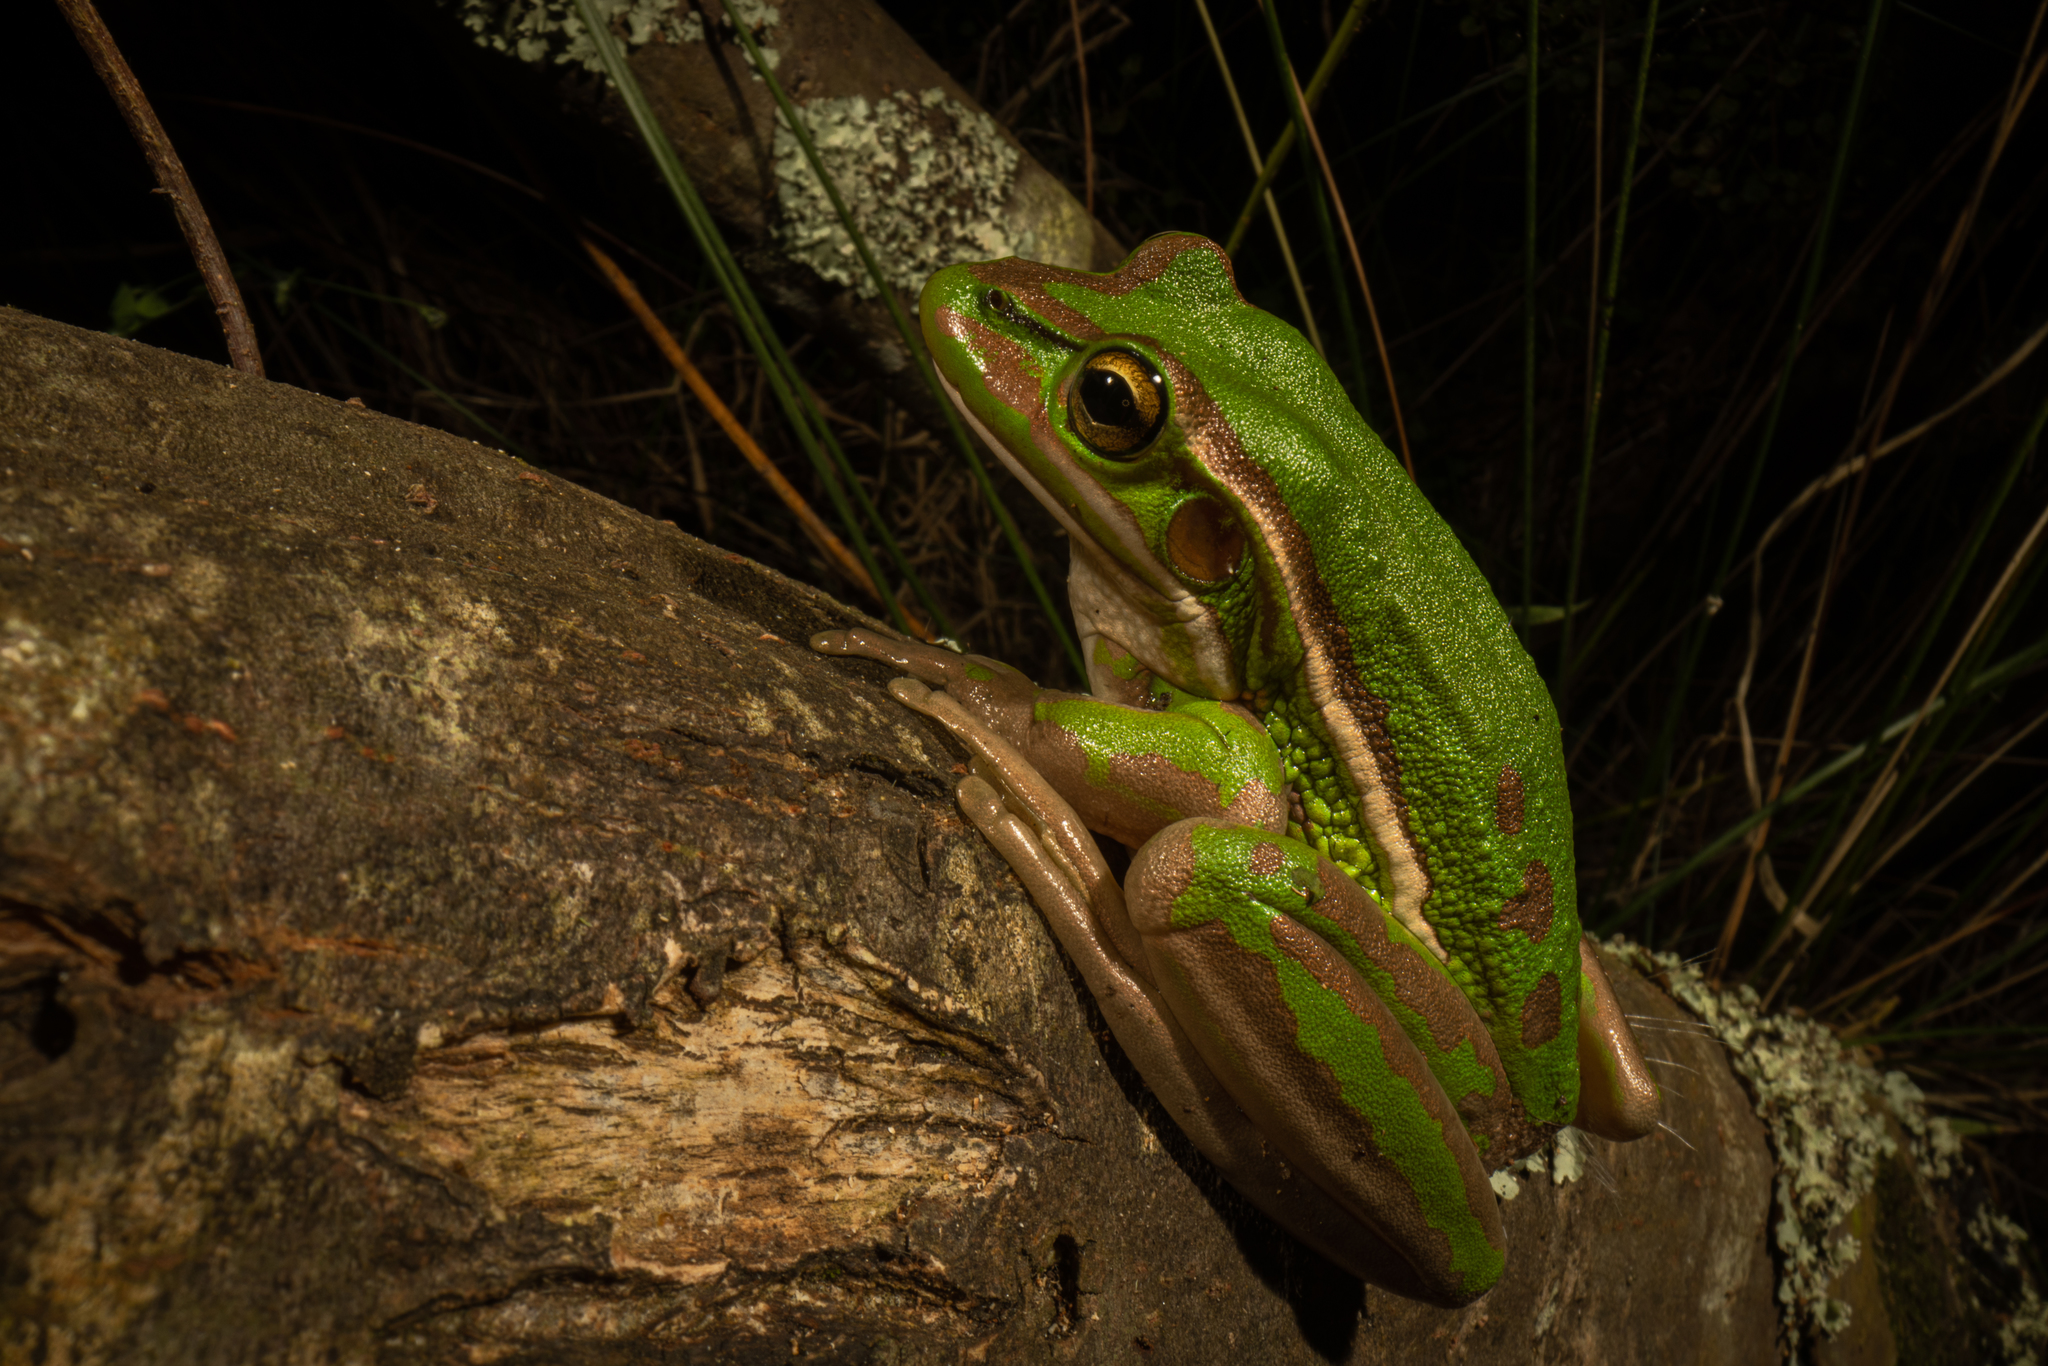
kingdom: Animalia
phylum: Chordata
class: Amphibia
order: Anura
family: Pelodryadidae
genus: Ranoidea
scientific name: Ranoidea aurea
